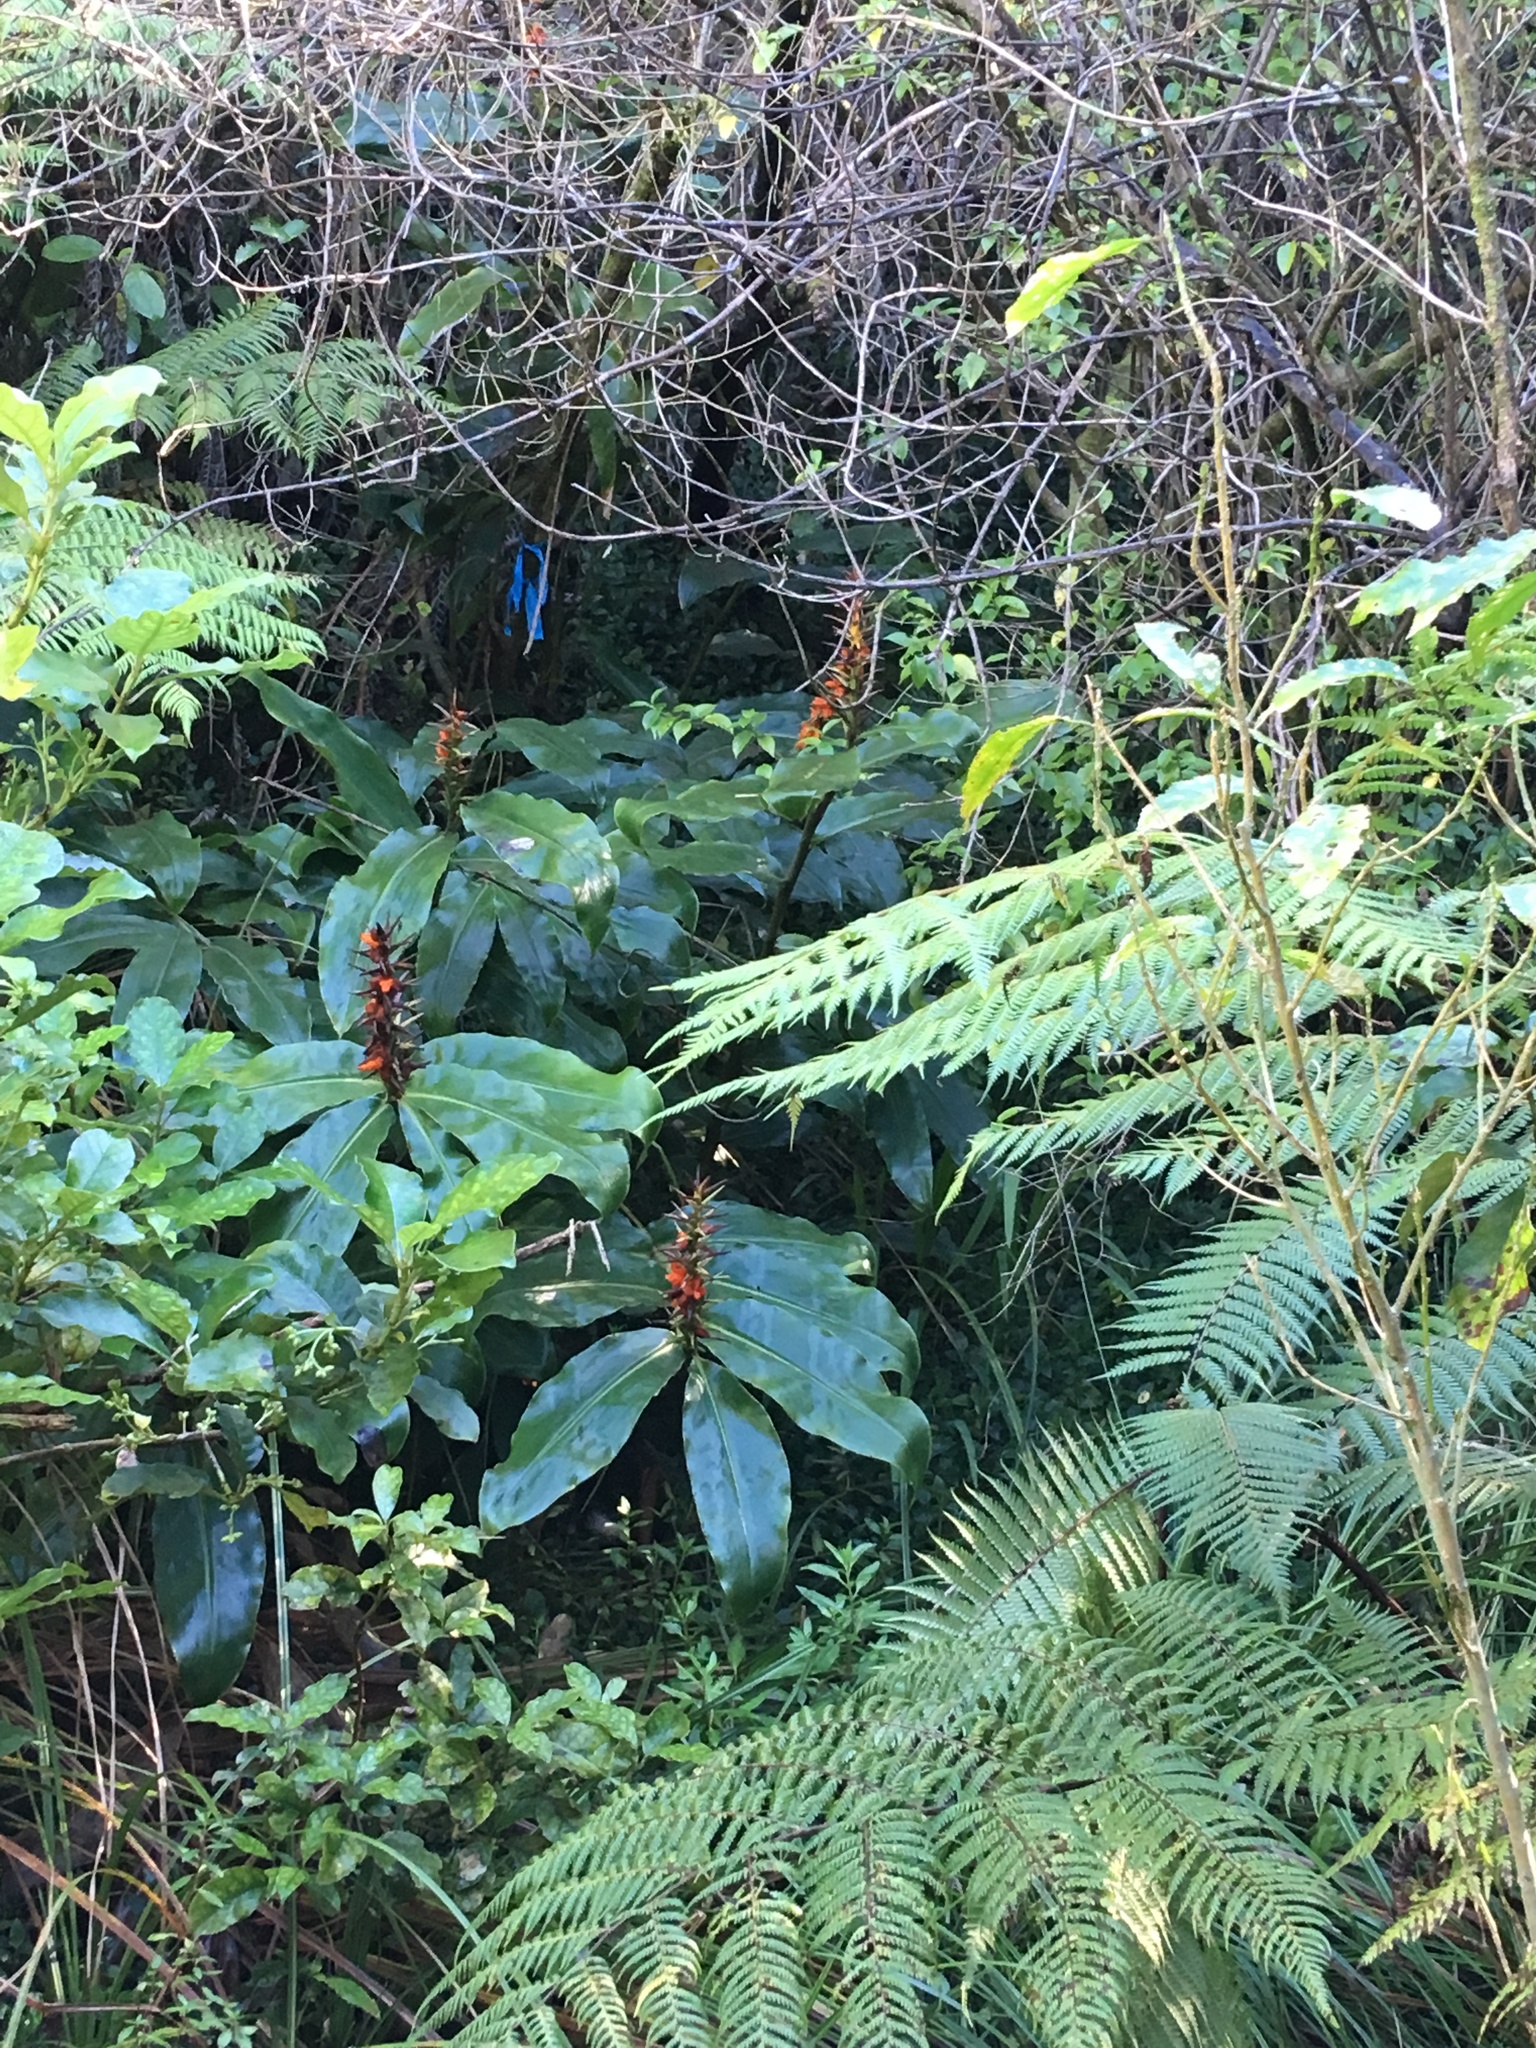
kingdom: Plantae
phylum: Tracheophyta
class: Liliopsida
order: Zingiberales
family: Zingiberaceae
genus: Hedychium
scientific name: Hedychium gardnerianum
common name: Himalayan ginger
